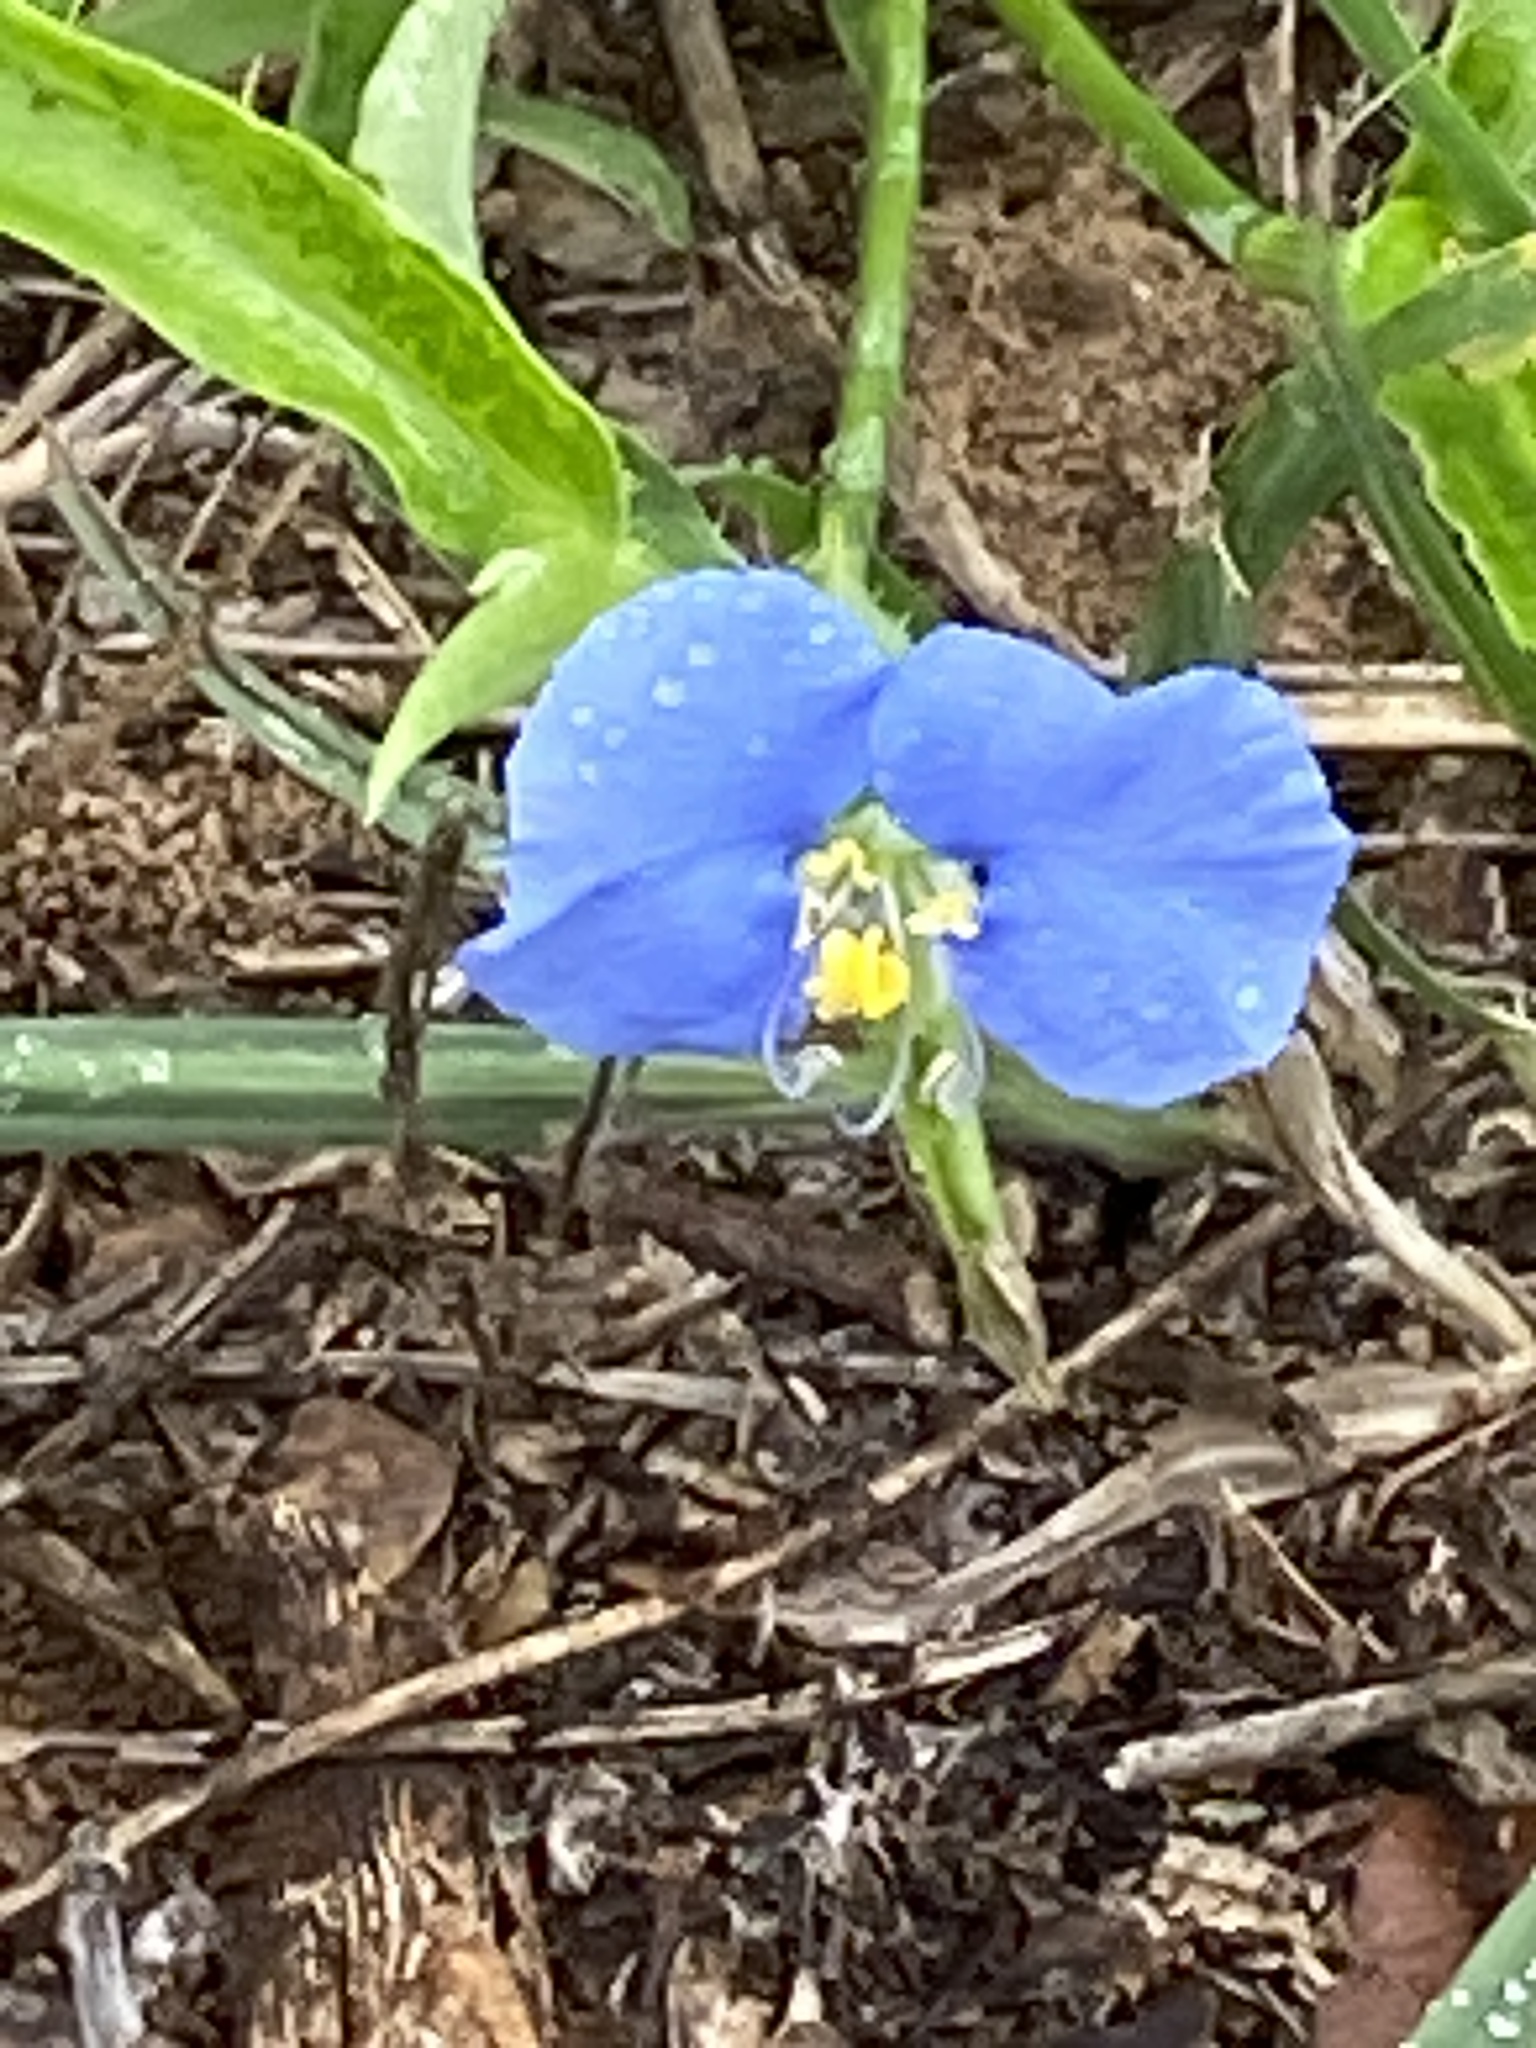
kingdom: Plantae
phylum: Tracheophyta
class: Liliopsida
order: Commelinales
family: Commelinaceae
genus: Commelina
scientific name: Commelina erecta
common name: Blousel blommetjie
